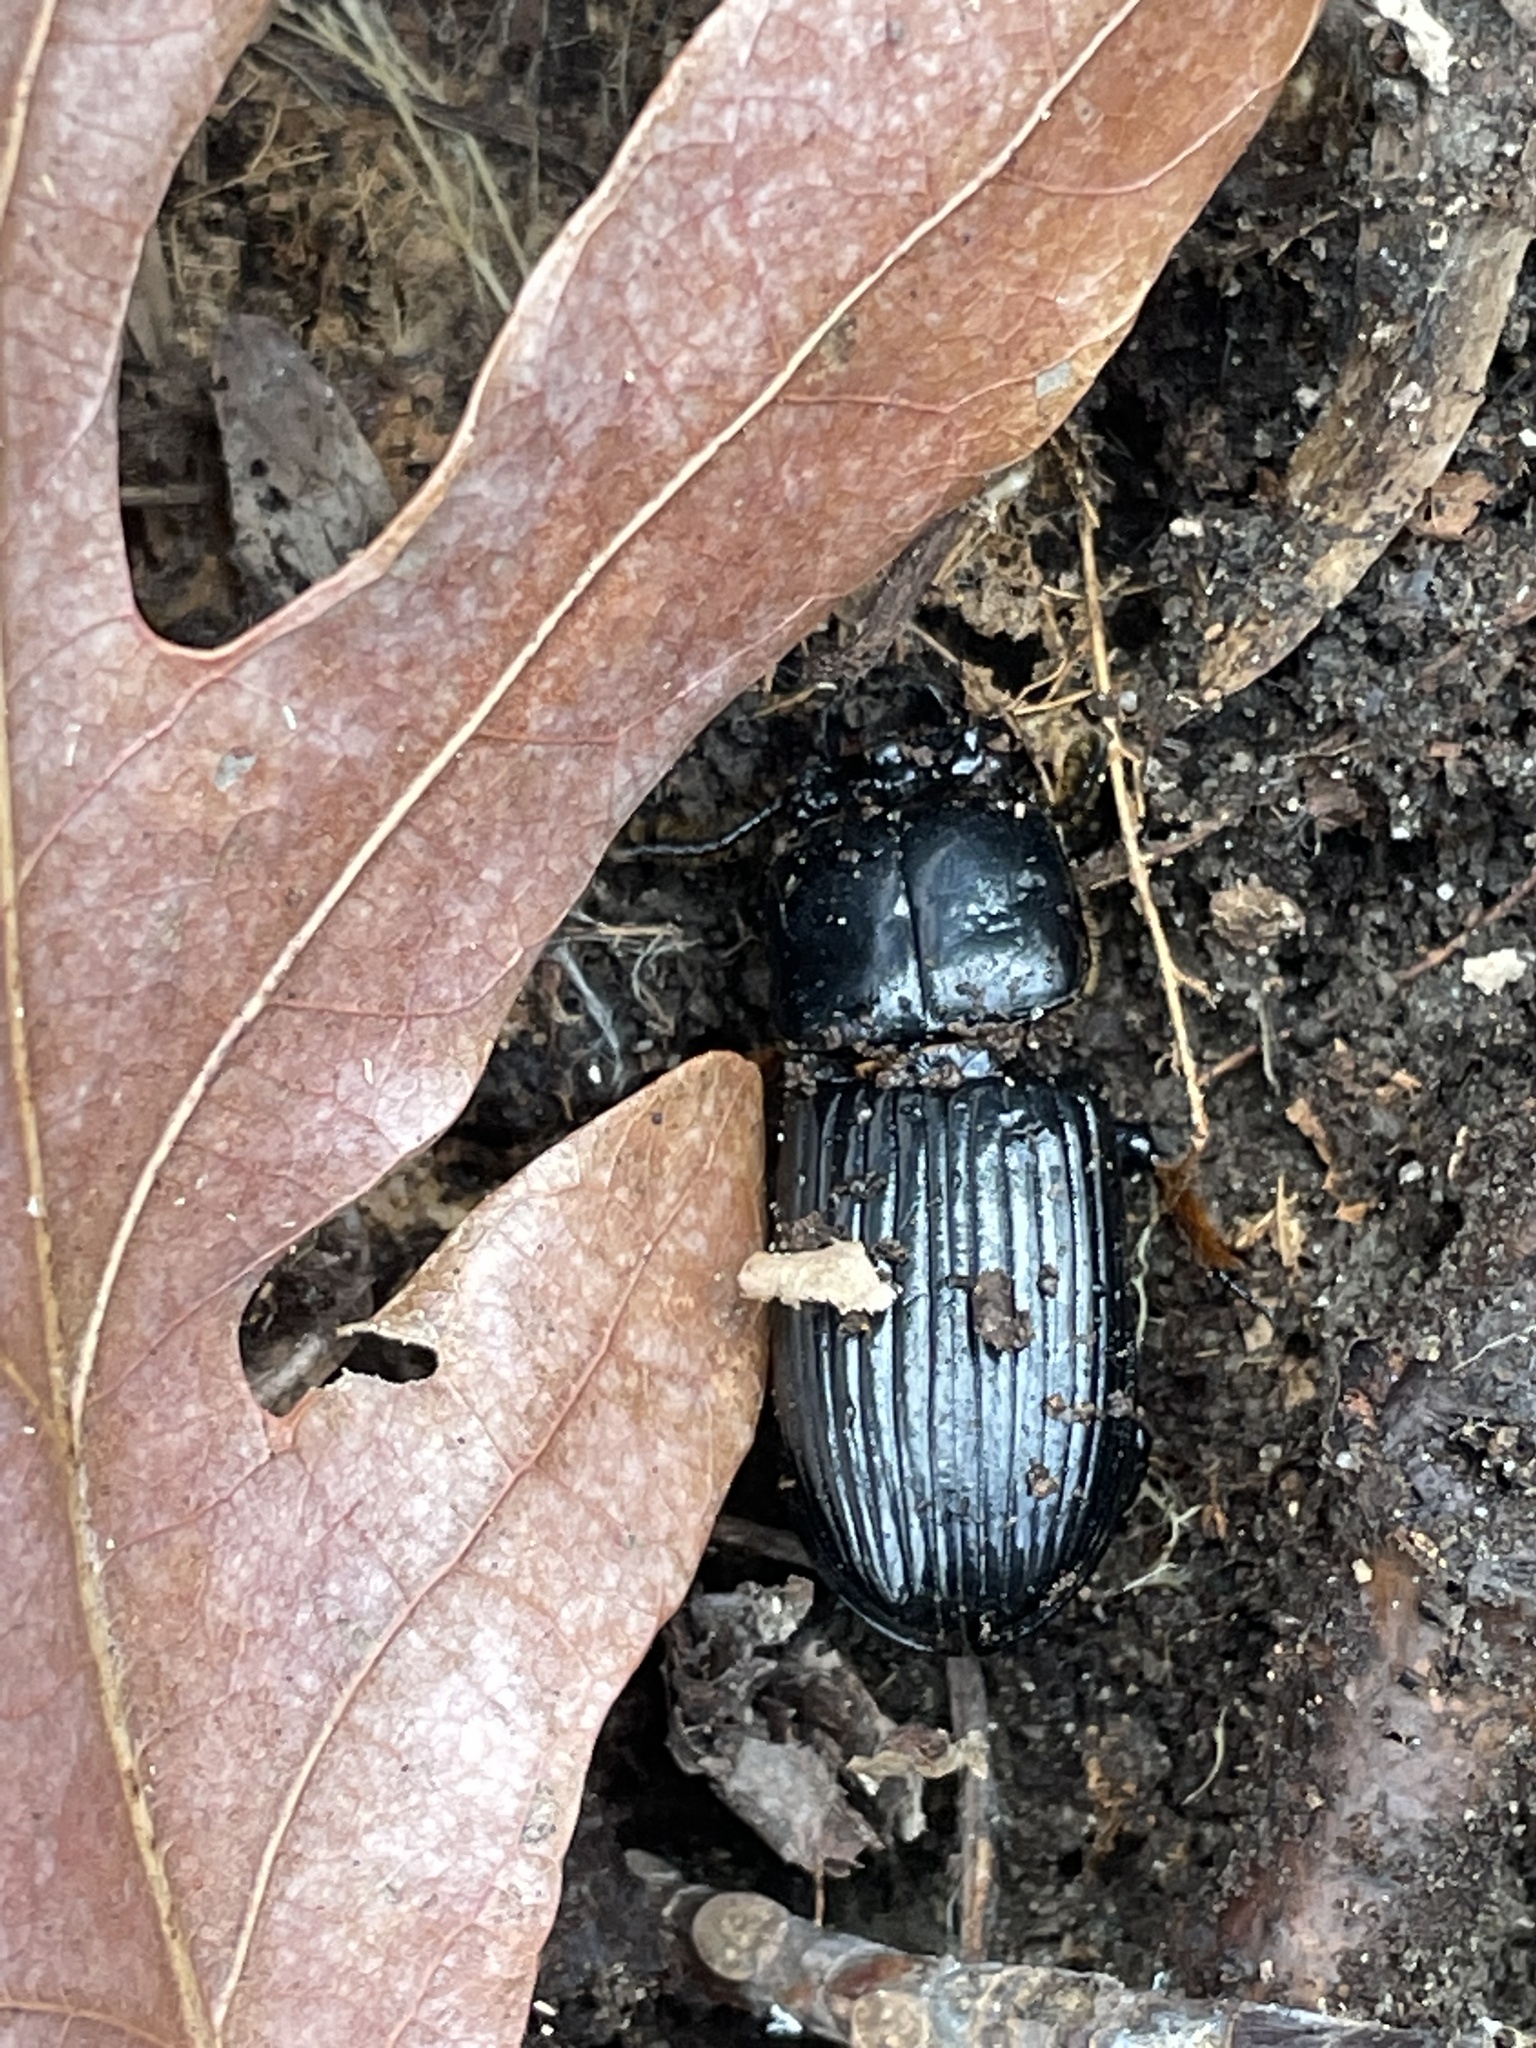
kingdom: Animalia
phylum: Arthropoda
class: Insecta
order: Coleoptera
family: Passalidae
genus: Odontotaenius
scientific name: Odontotaenius disjunctus
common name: Patent leather beetle
